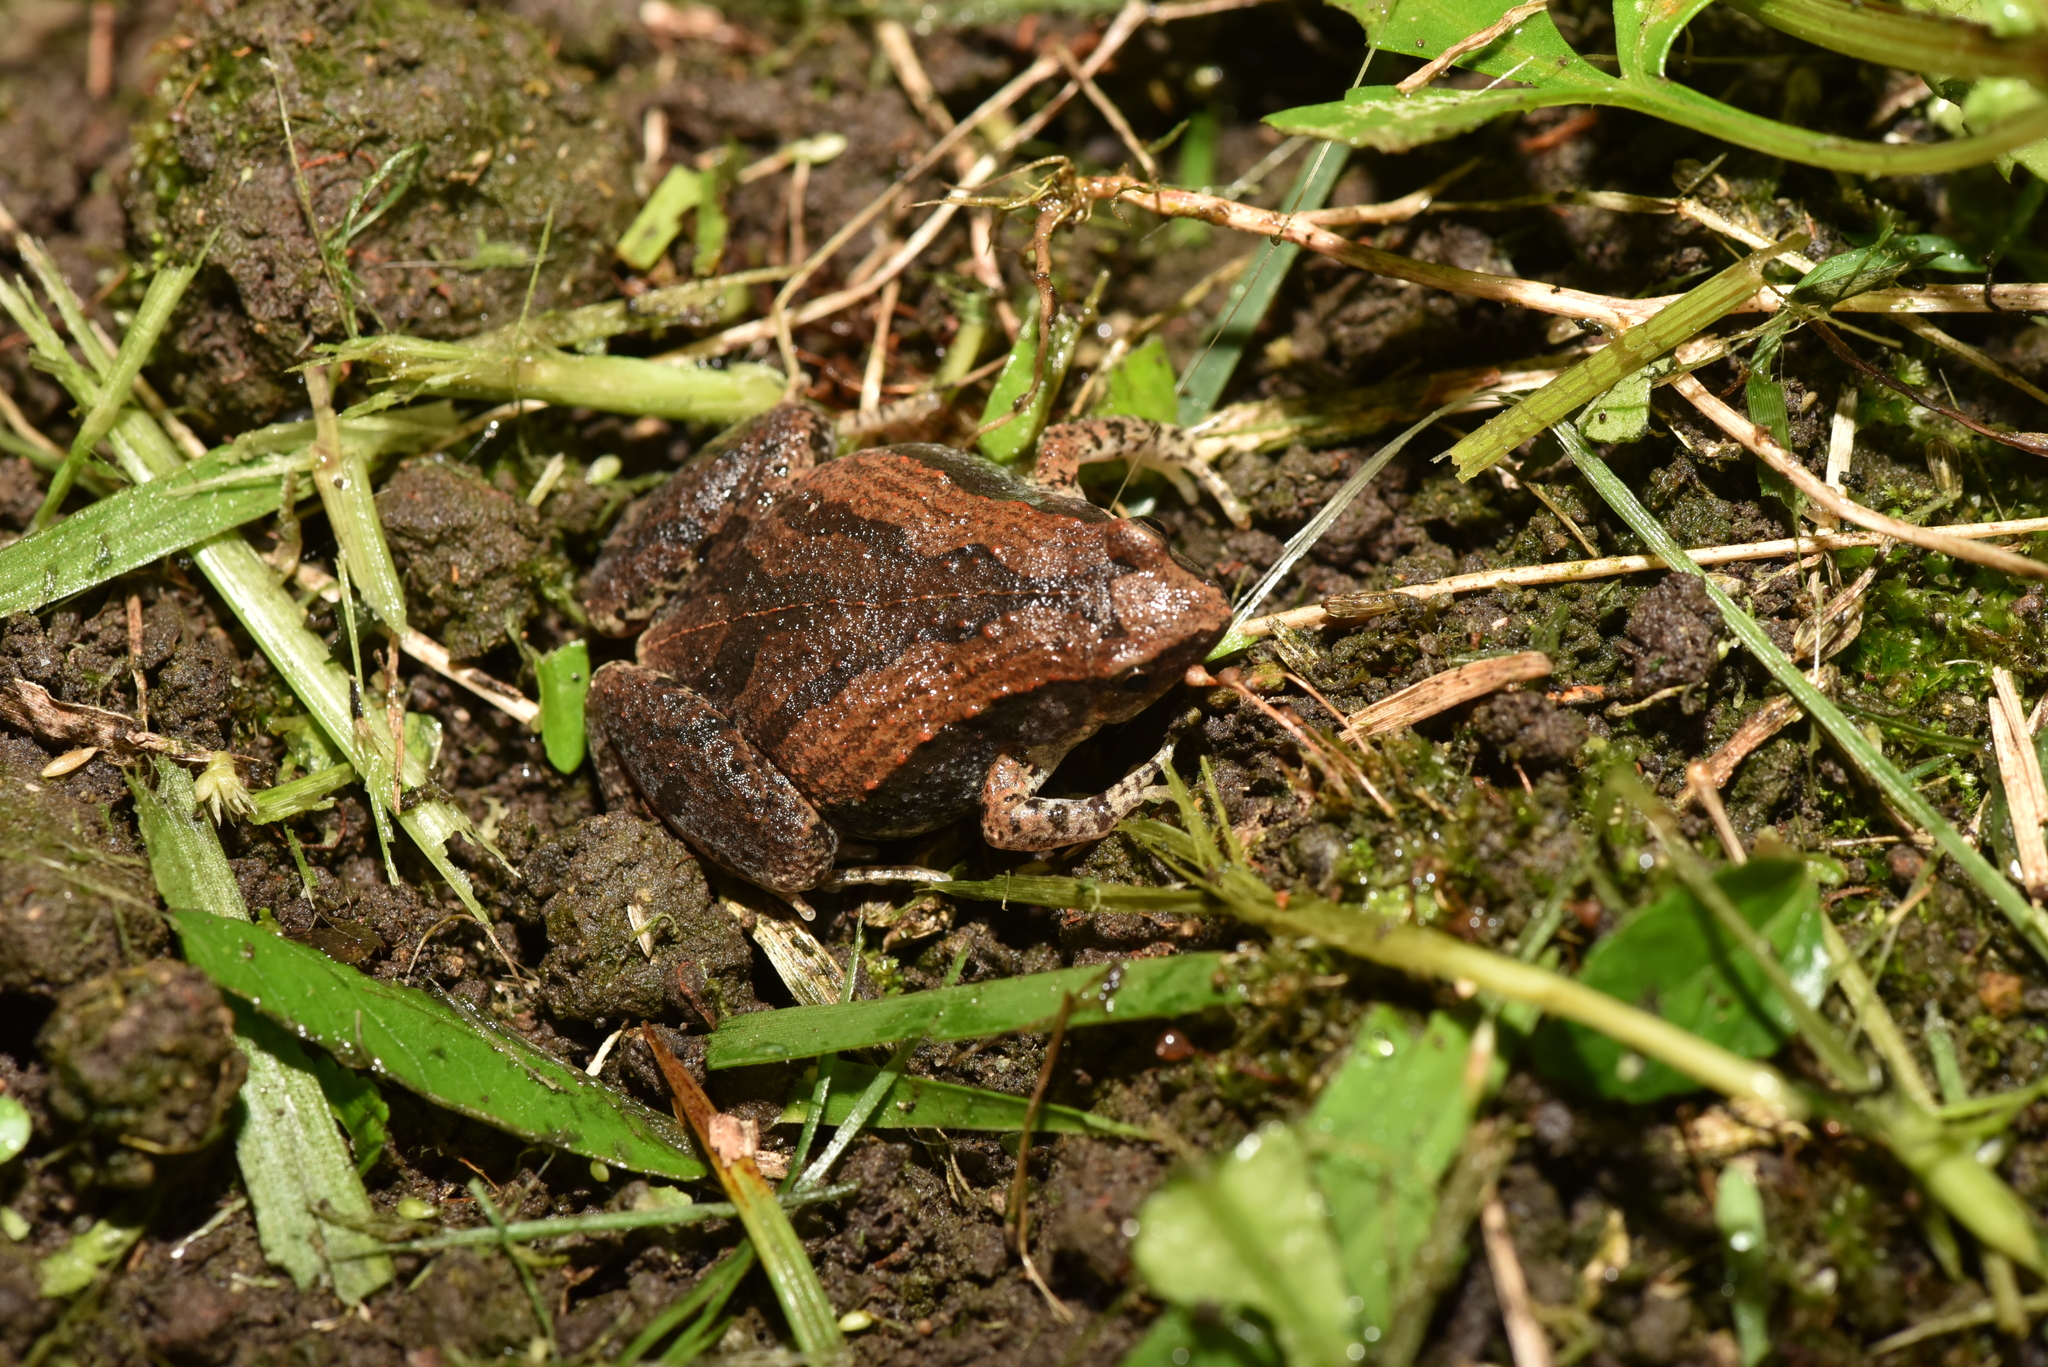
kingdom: Animalia
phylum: Chordata
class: Amphibia
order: Anura
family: Microhylidae
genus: Microhyla
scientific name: Microhyla fissipes
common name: Ornate narrow-mouthed frog
